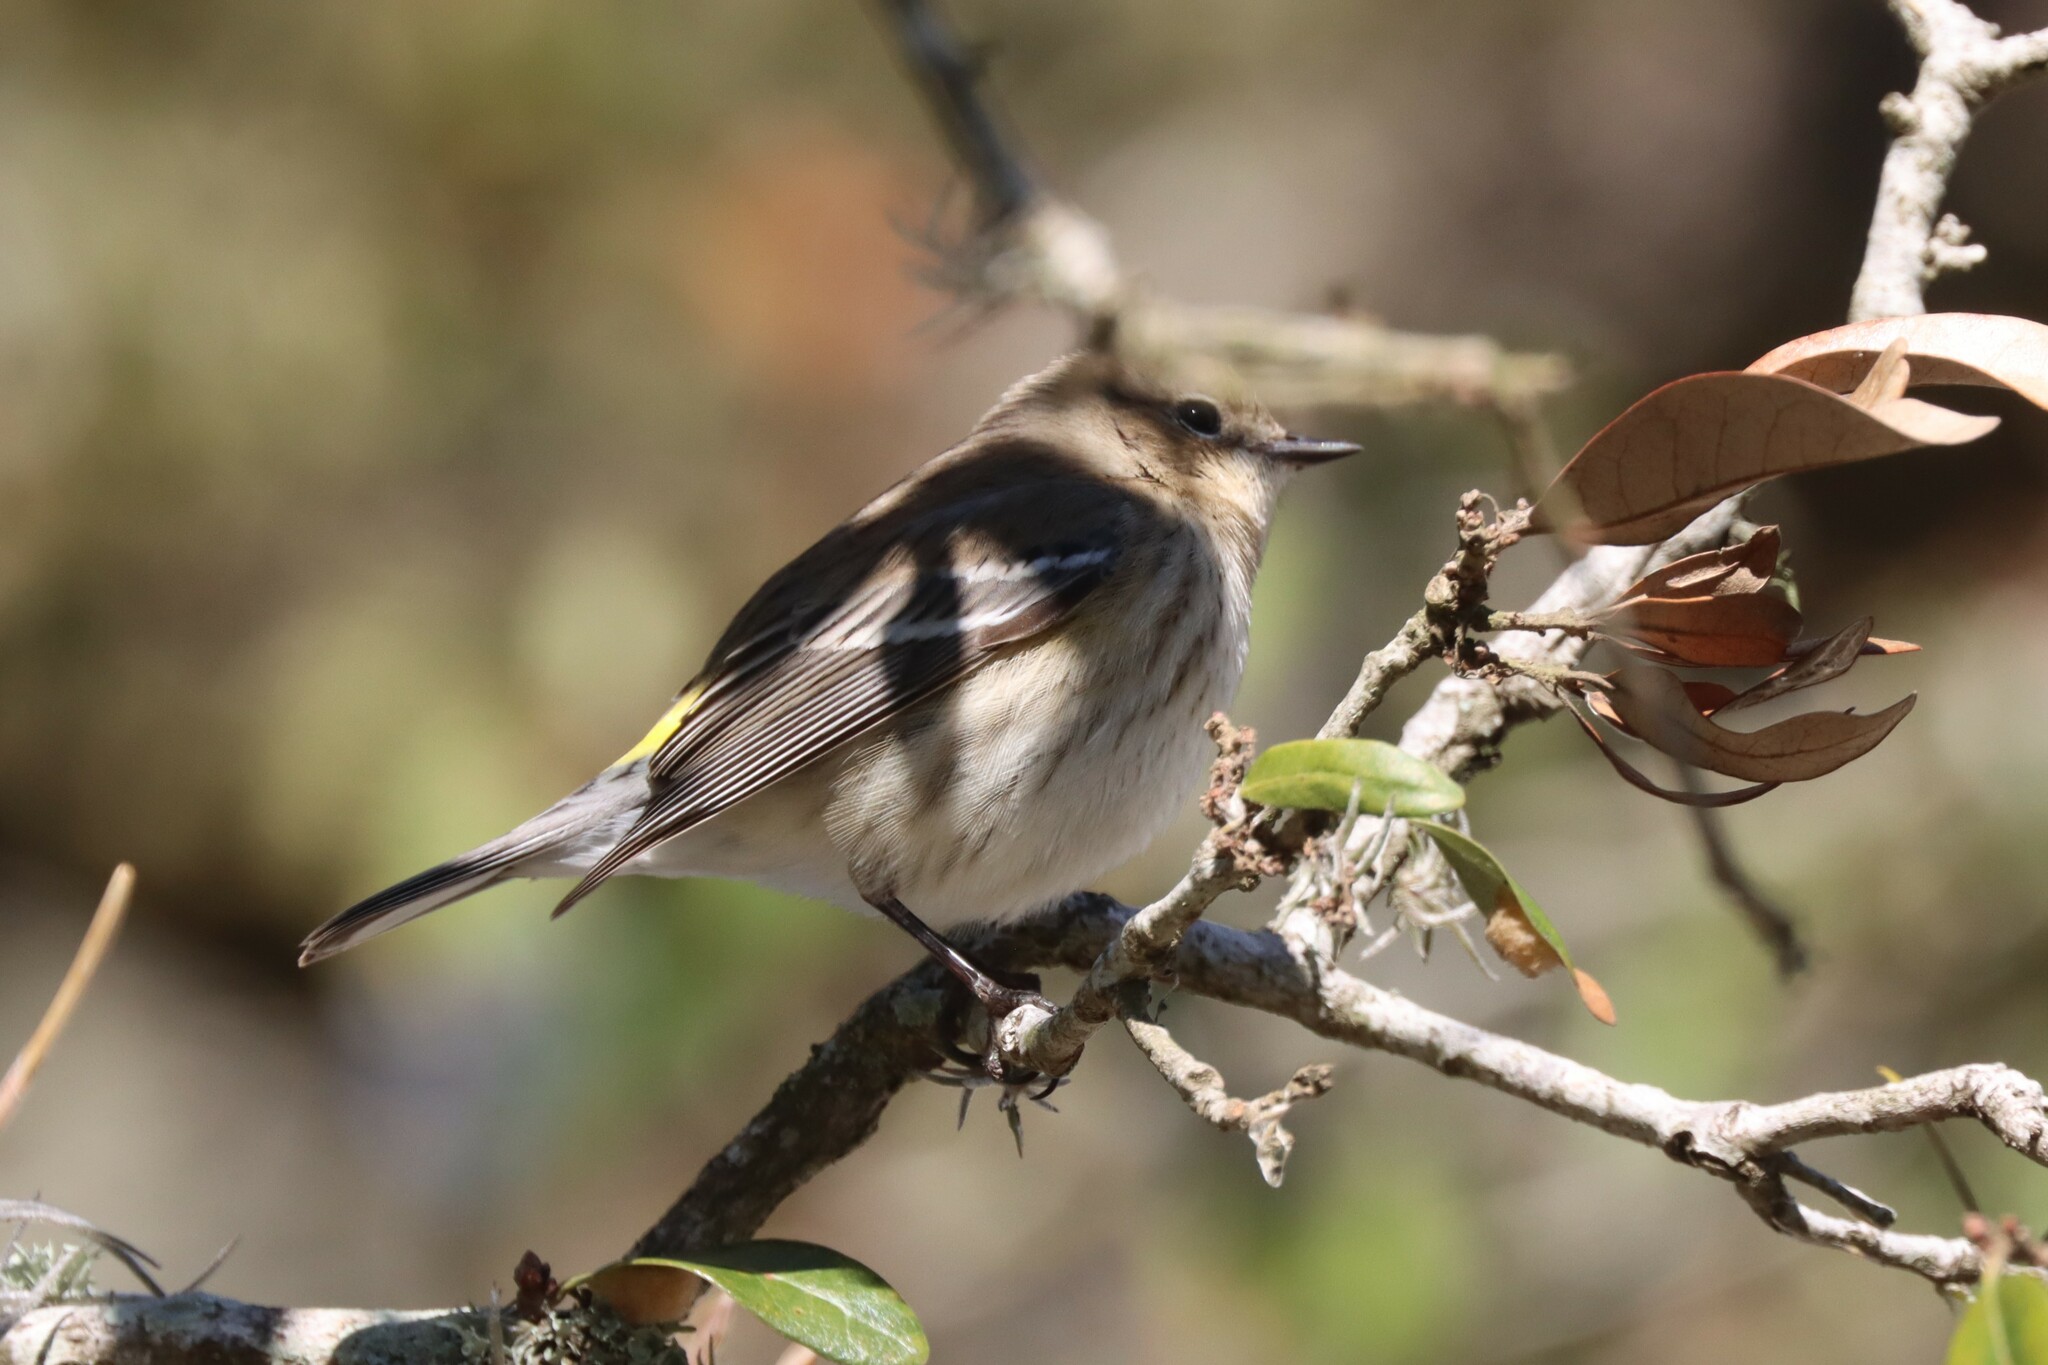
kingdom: Animalia
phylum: Chordata
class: Aves
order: Passeriformes
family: Parulidae
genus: Setophaga
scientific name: Setophaga coronata
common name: Myrtle warbler
